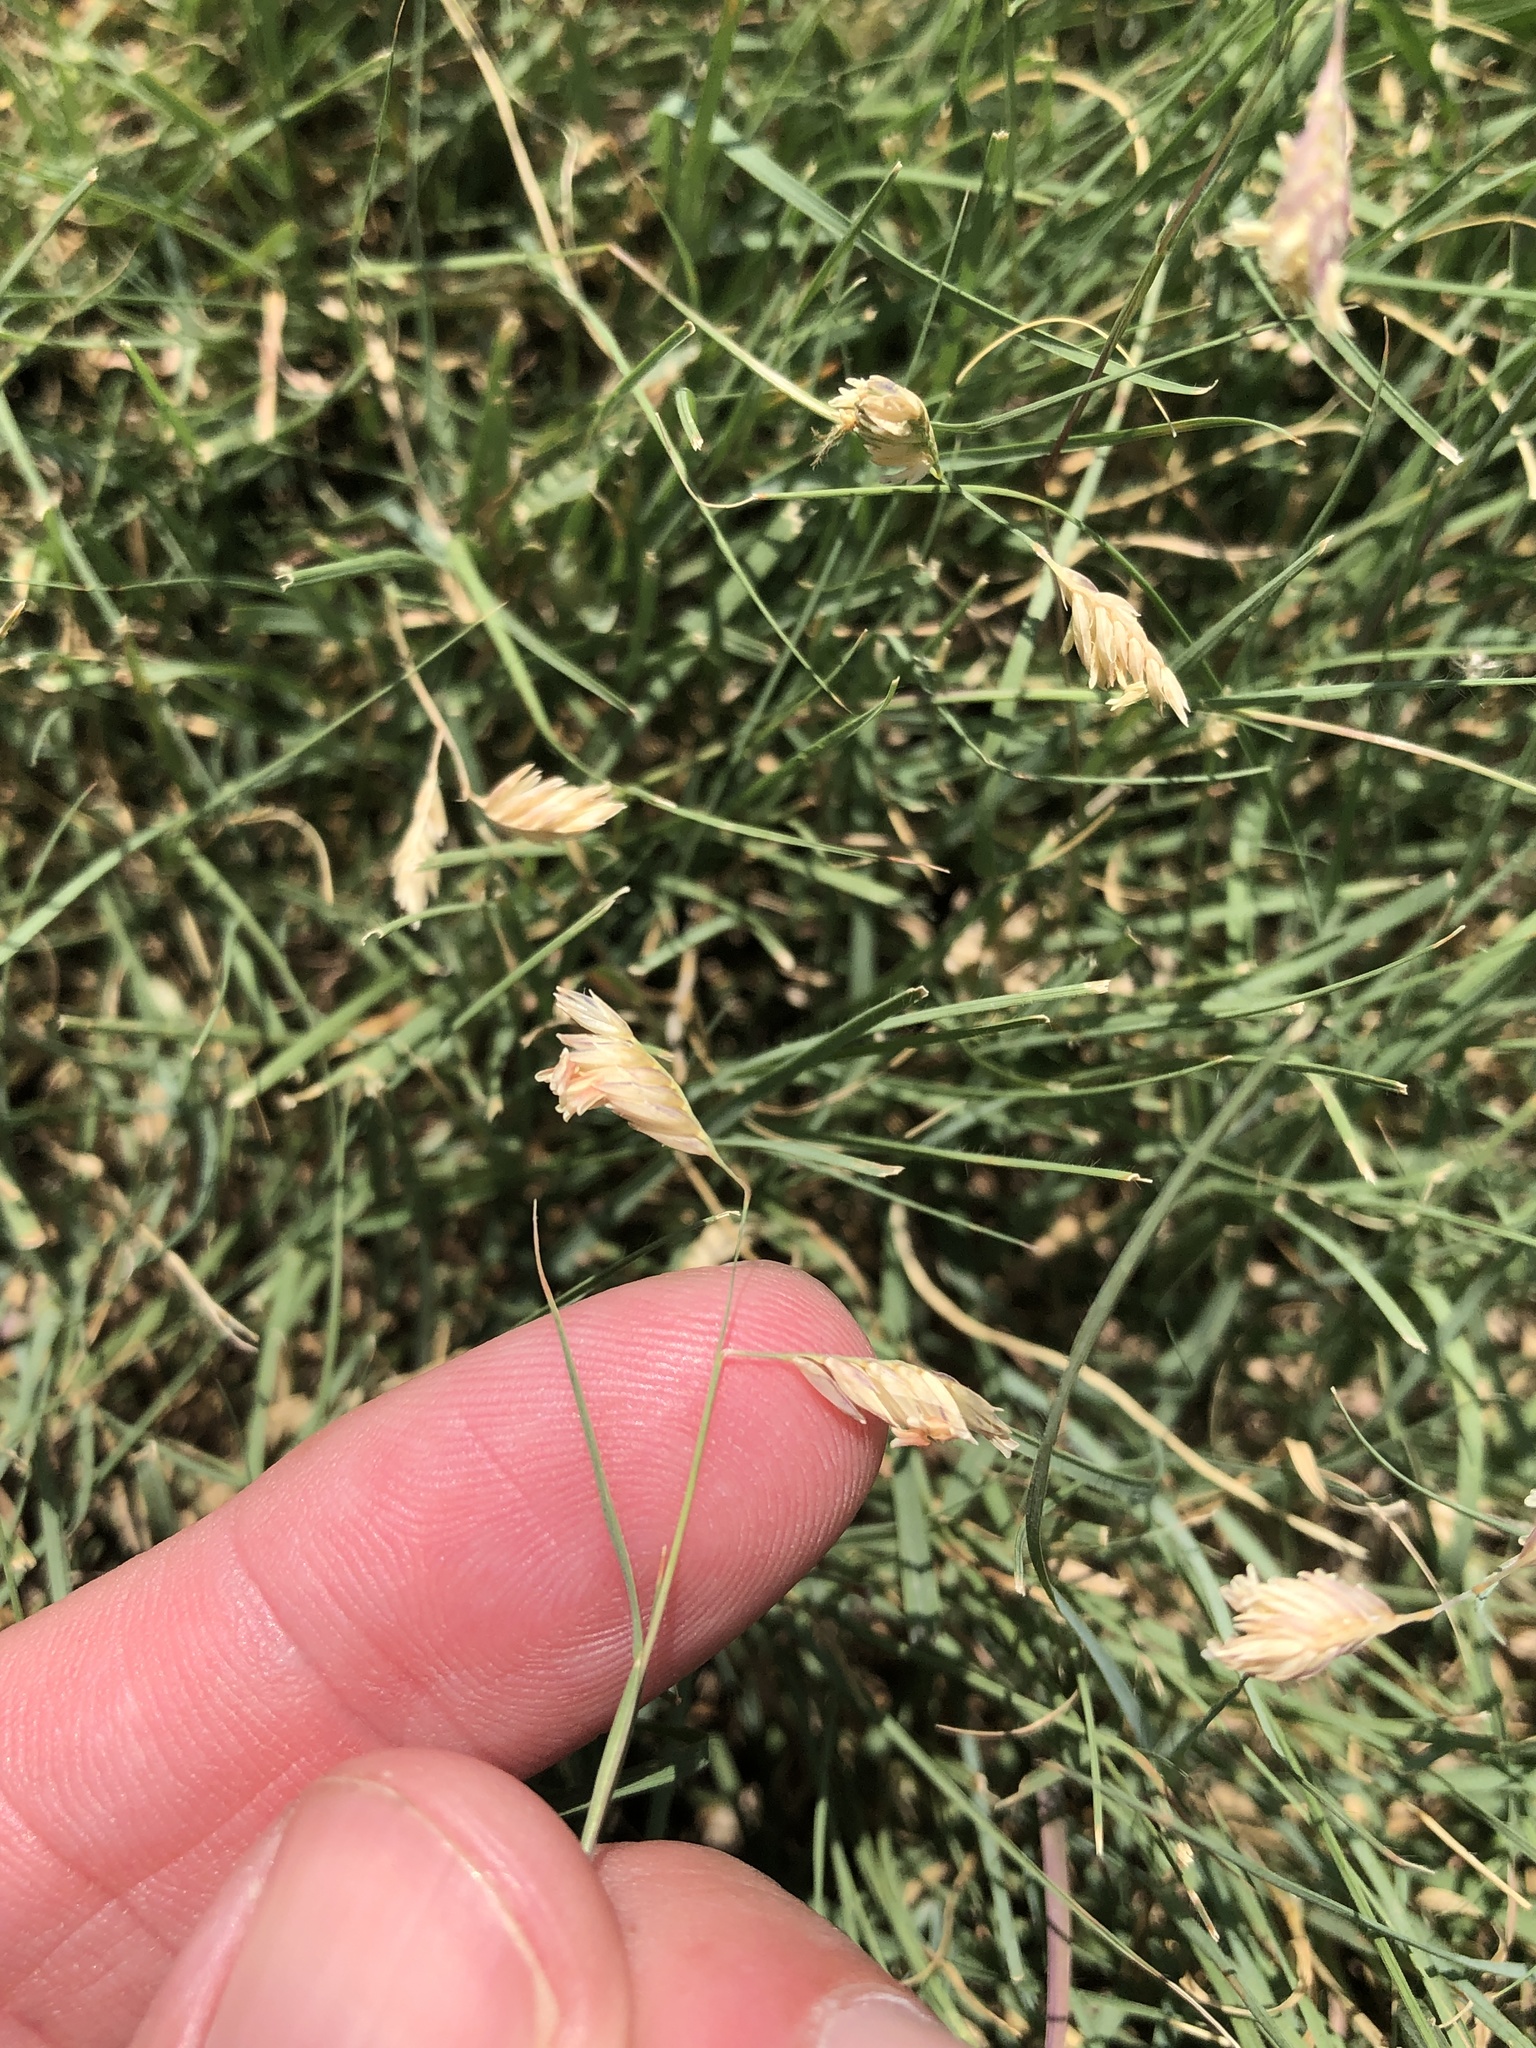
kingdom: Plantae
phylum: Tracheophyta
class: Liliopsida
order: Poales
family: Poaceae
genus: Bouteloua
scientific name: Bouteloua dactyloides
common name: Buffalo grass
